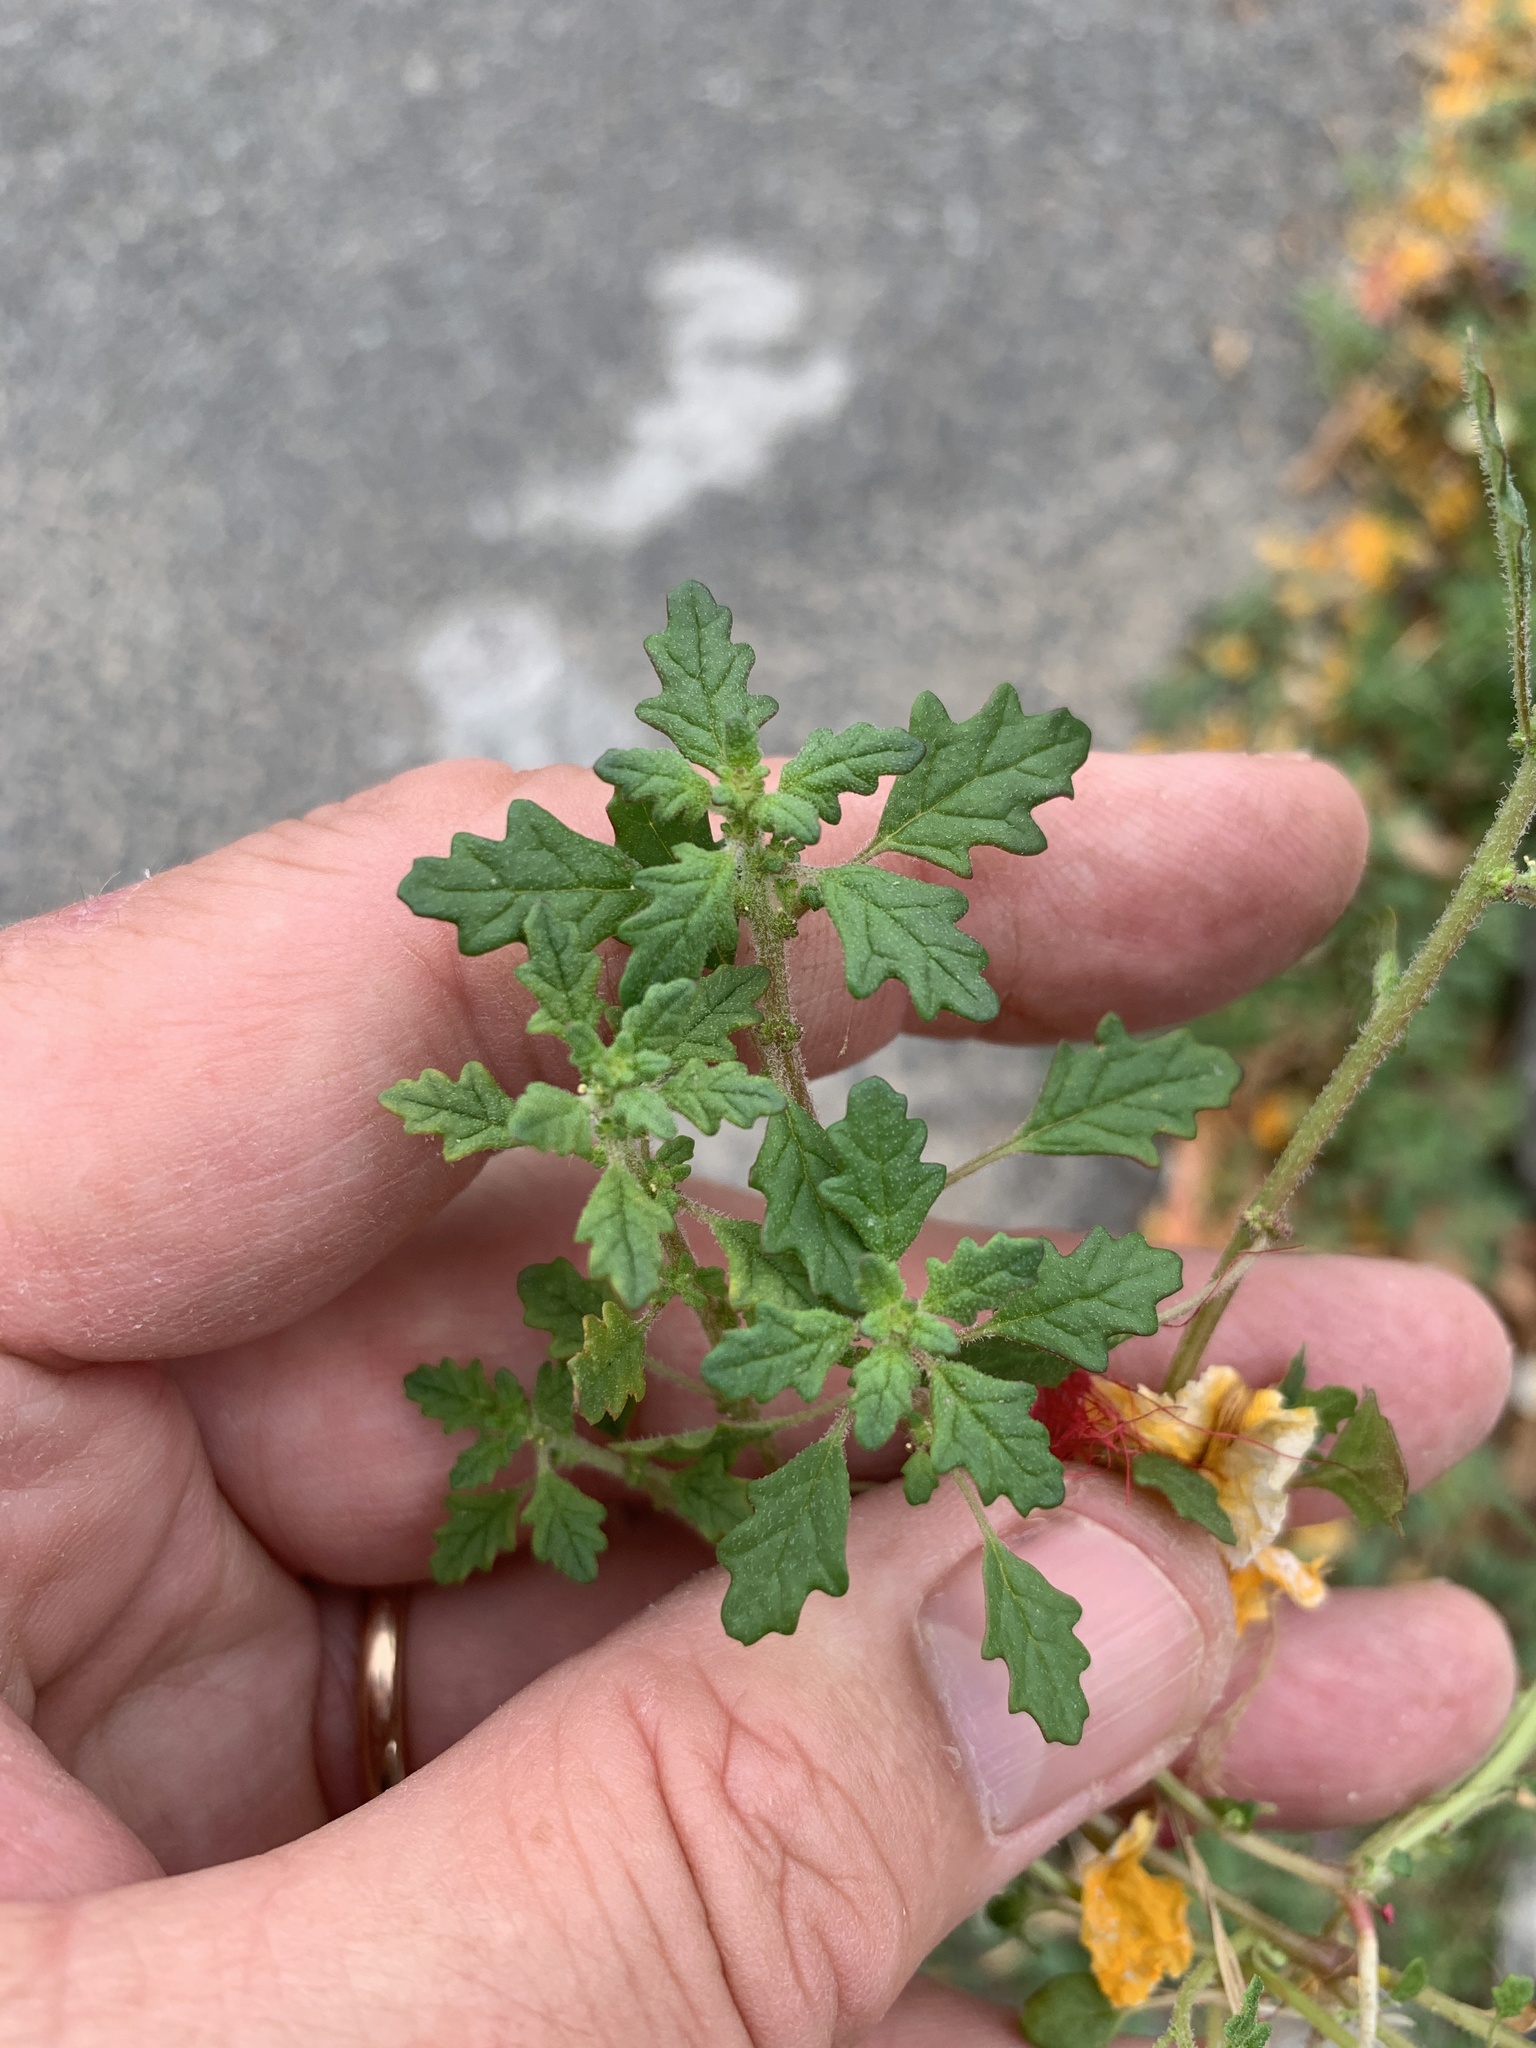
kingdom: Plantae
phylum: Tracheophyta
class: Magnoliopsida
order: Caryophyllales
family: Amaranthaceae
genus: Dysphania
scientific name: Dysphania pumilio
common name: Clammy goosefoot
